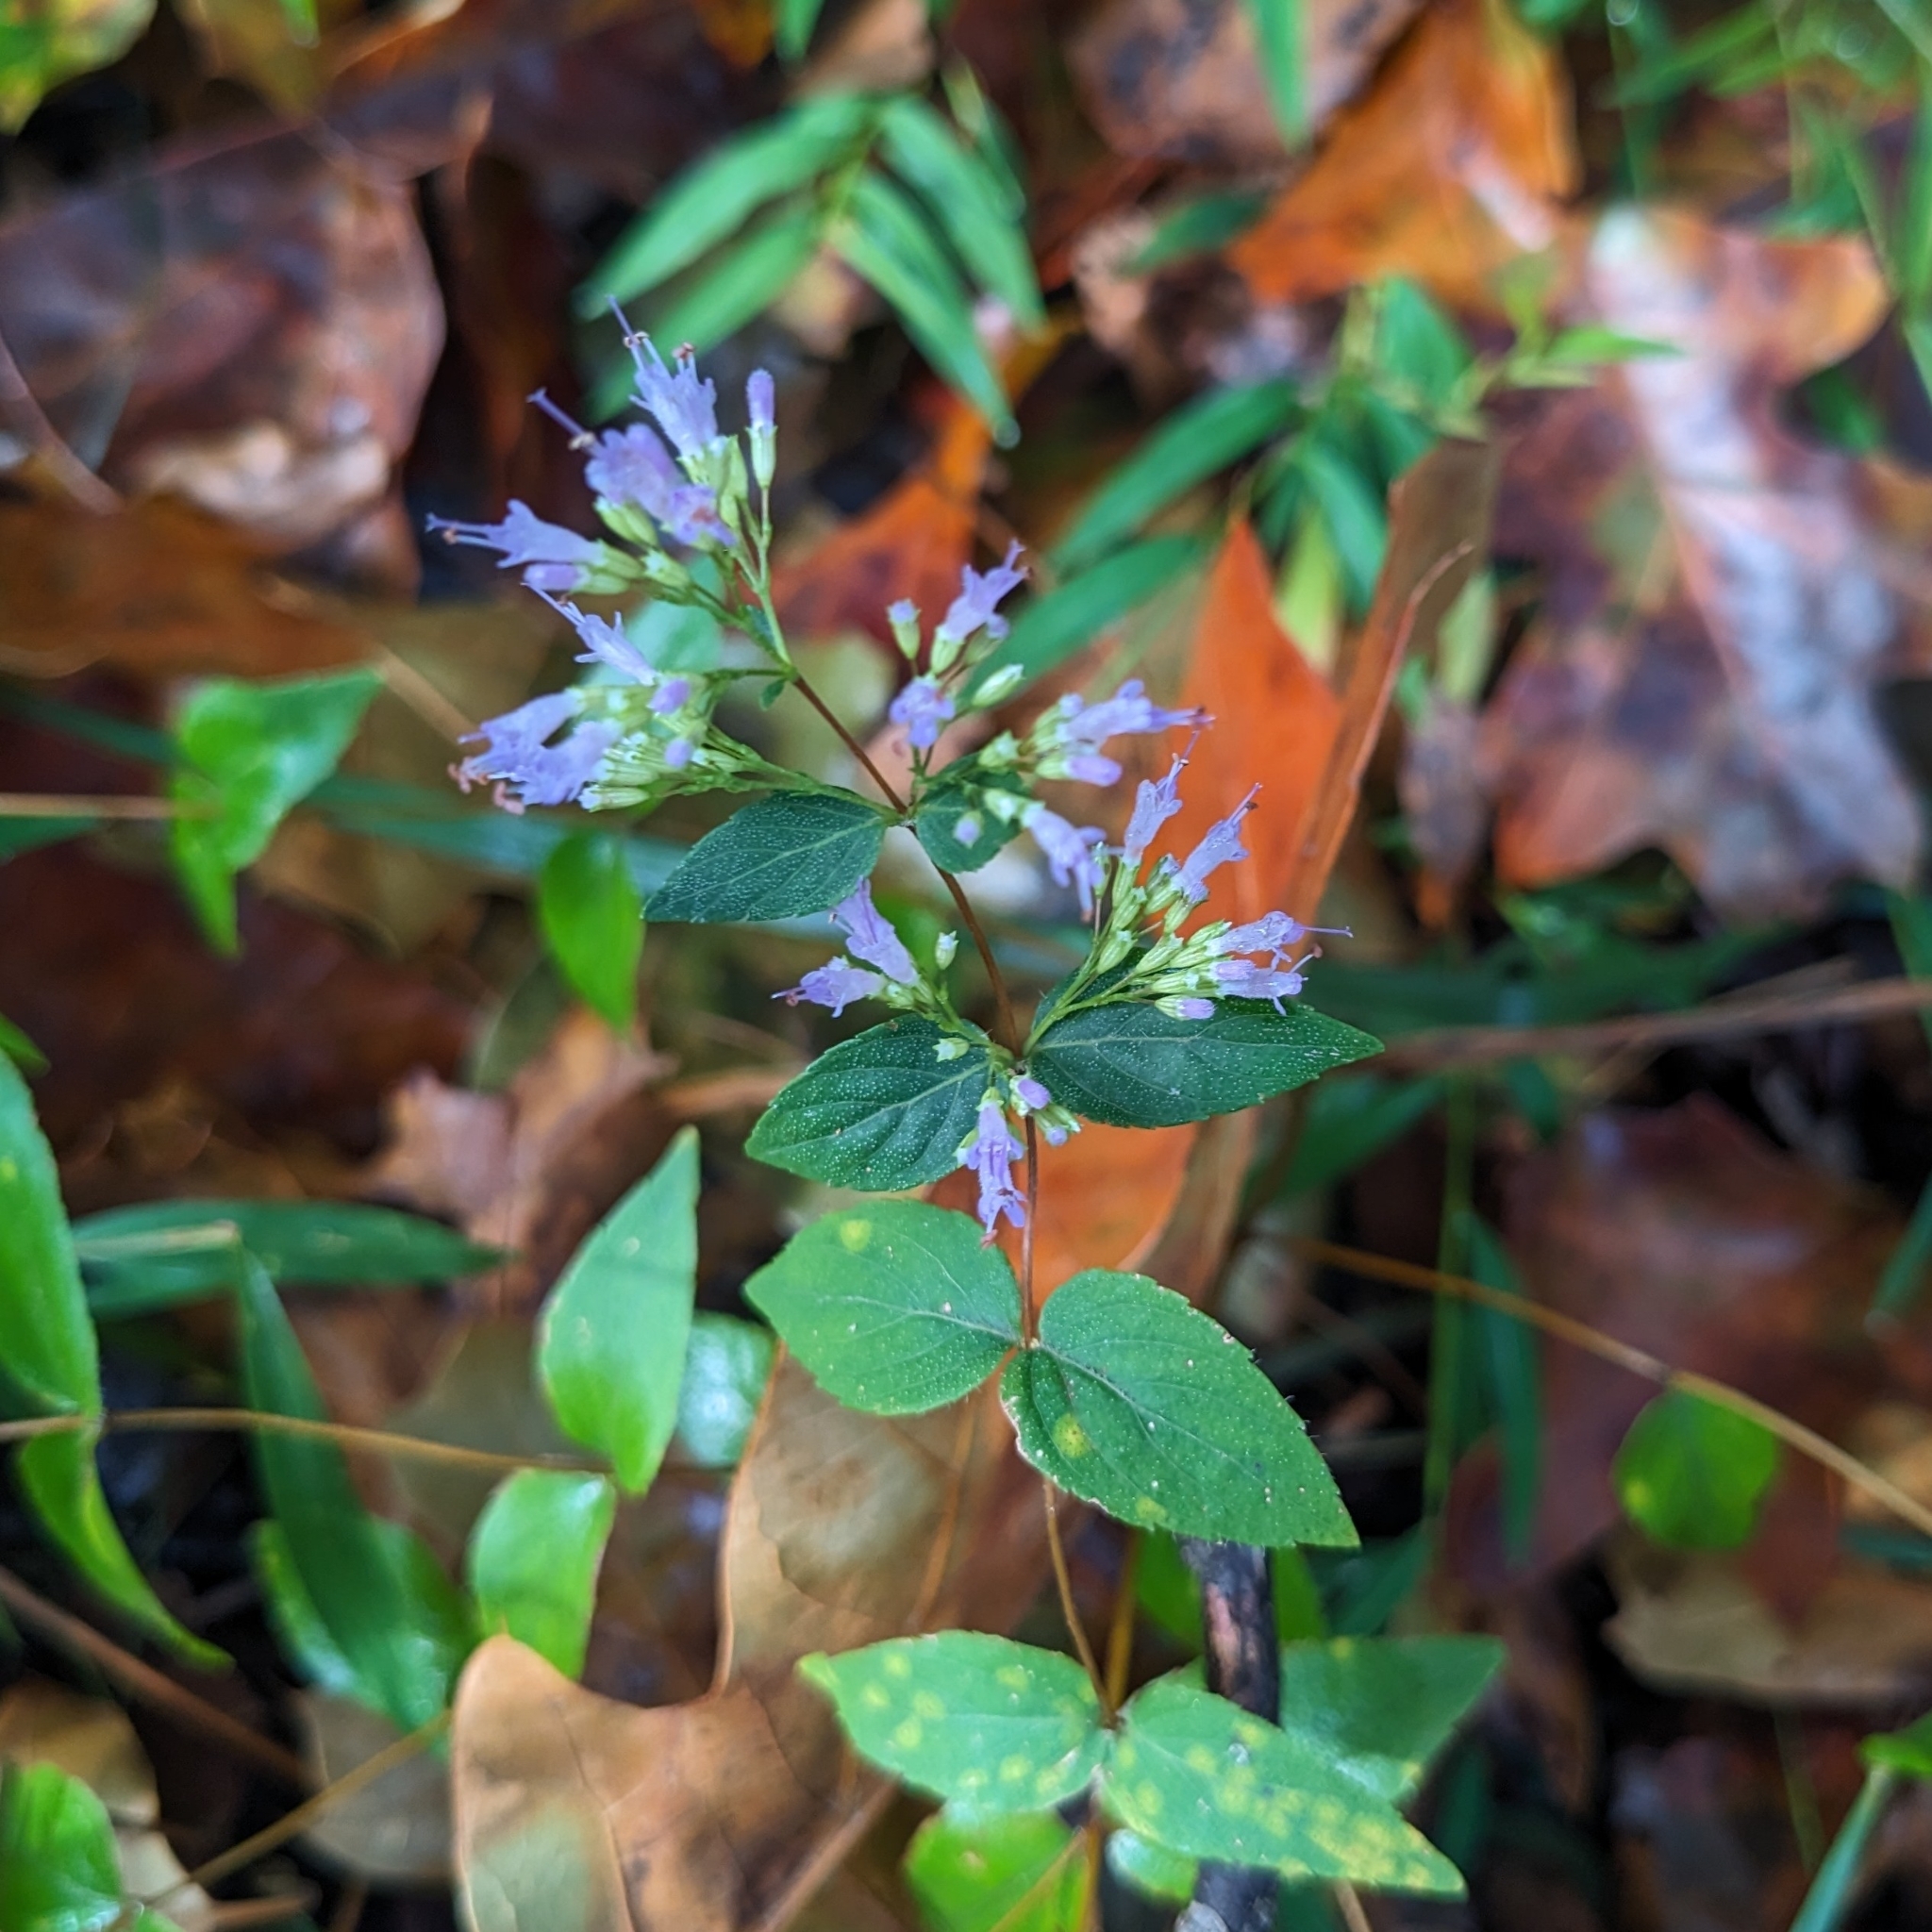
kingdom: Plantae
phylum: Tracheophyta
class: Magnoliopsida
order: Lamiales
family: Lamiaceae
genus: Cunila
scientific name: Cunila origanoides
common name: American dittany
